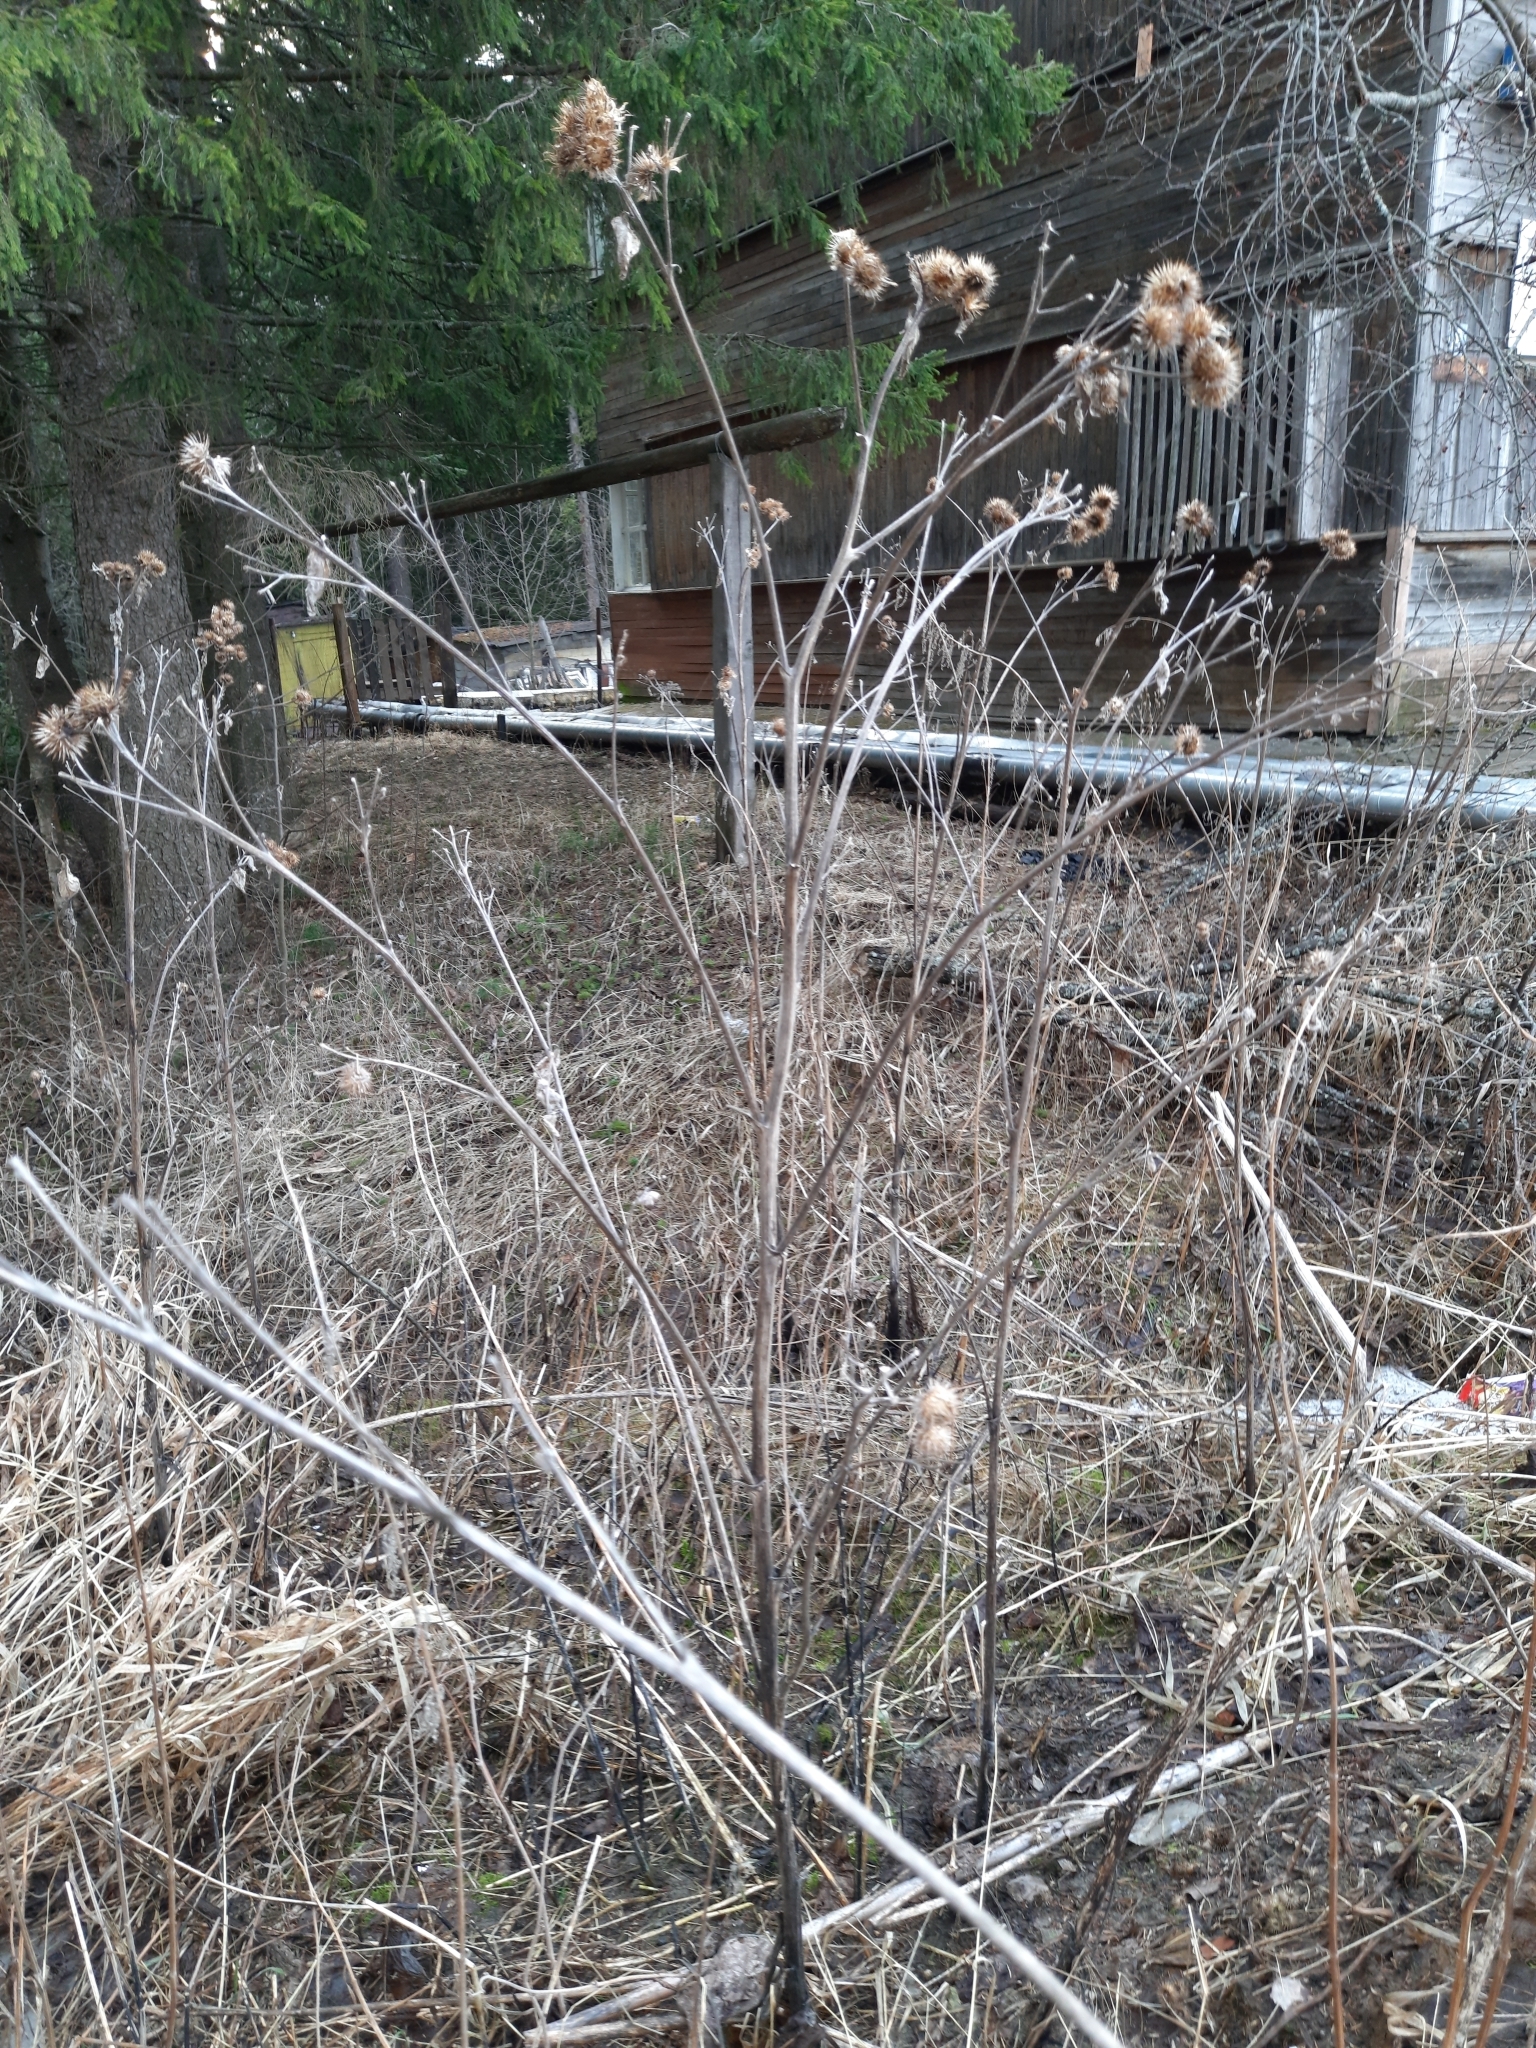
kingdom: Plantae
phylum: Tracheophyta
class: Magnoliopsida
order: Asterales
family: Asteraceae
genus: Arctium
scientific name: Arctium tomentosum
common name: Woolly burdock
